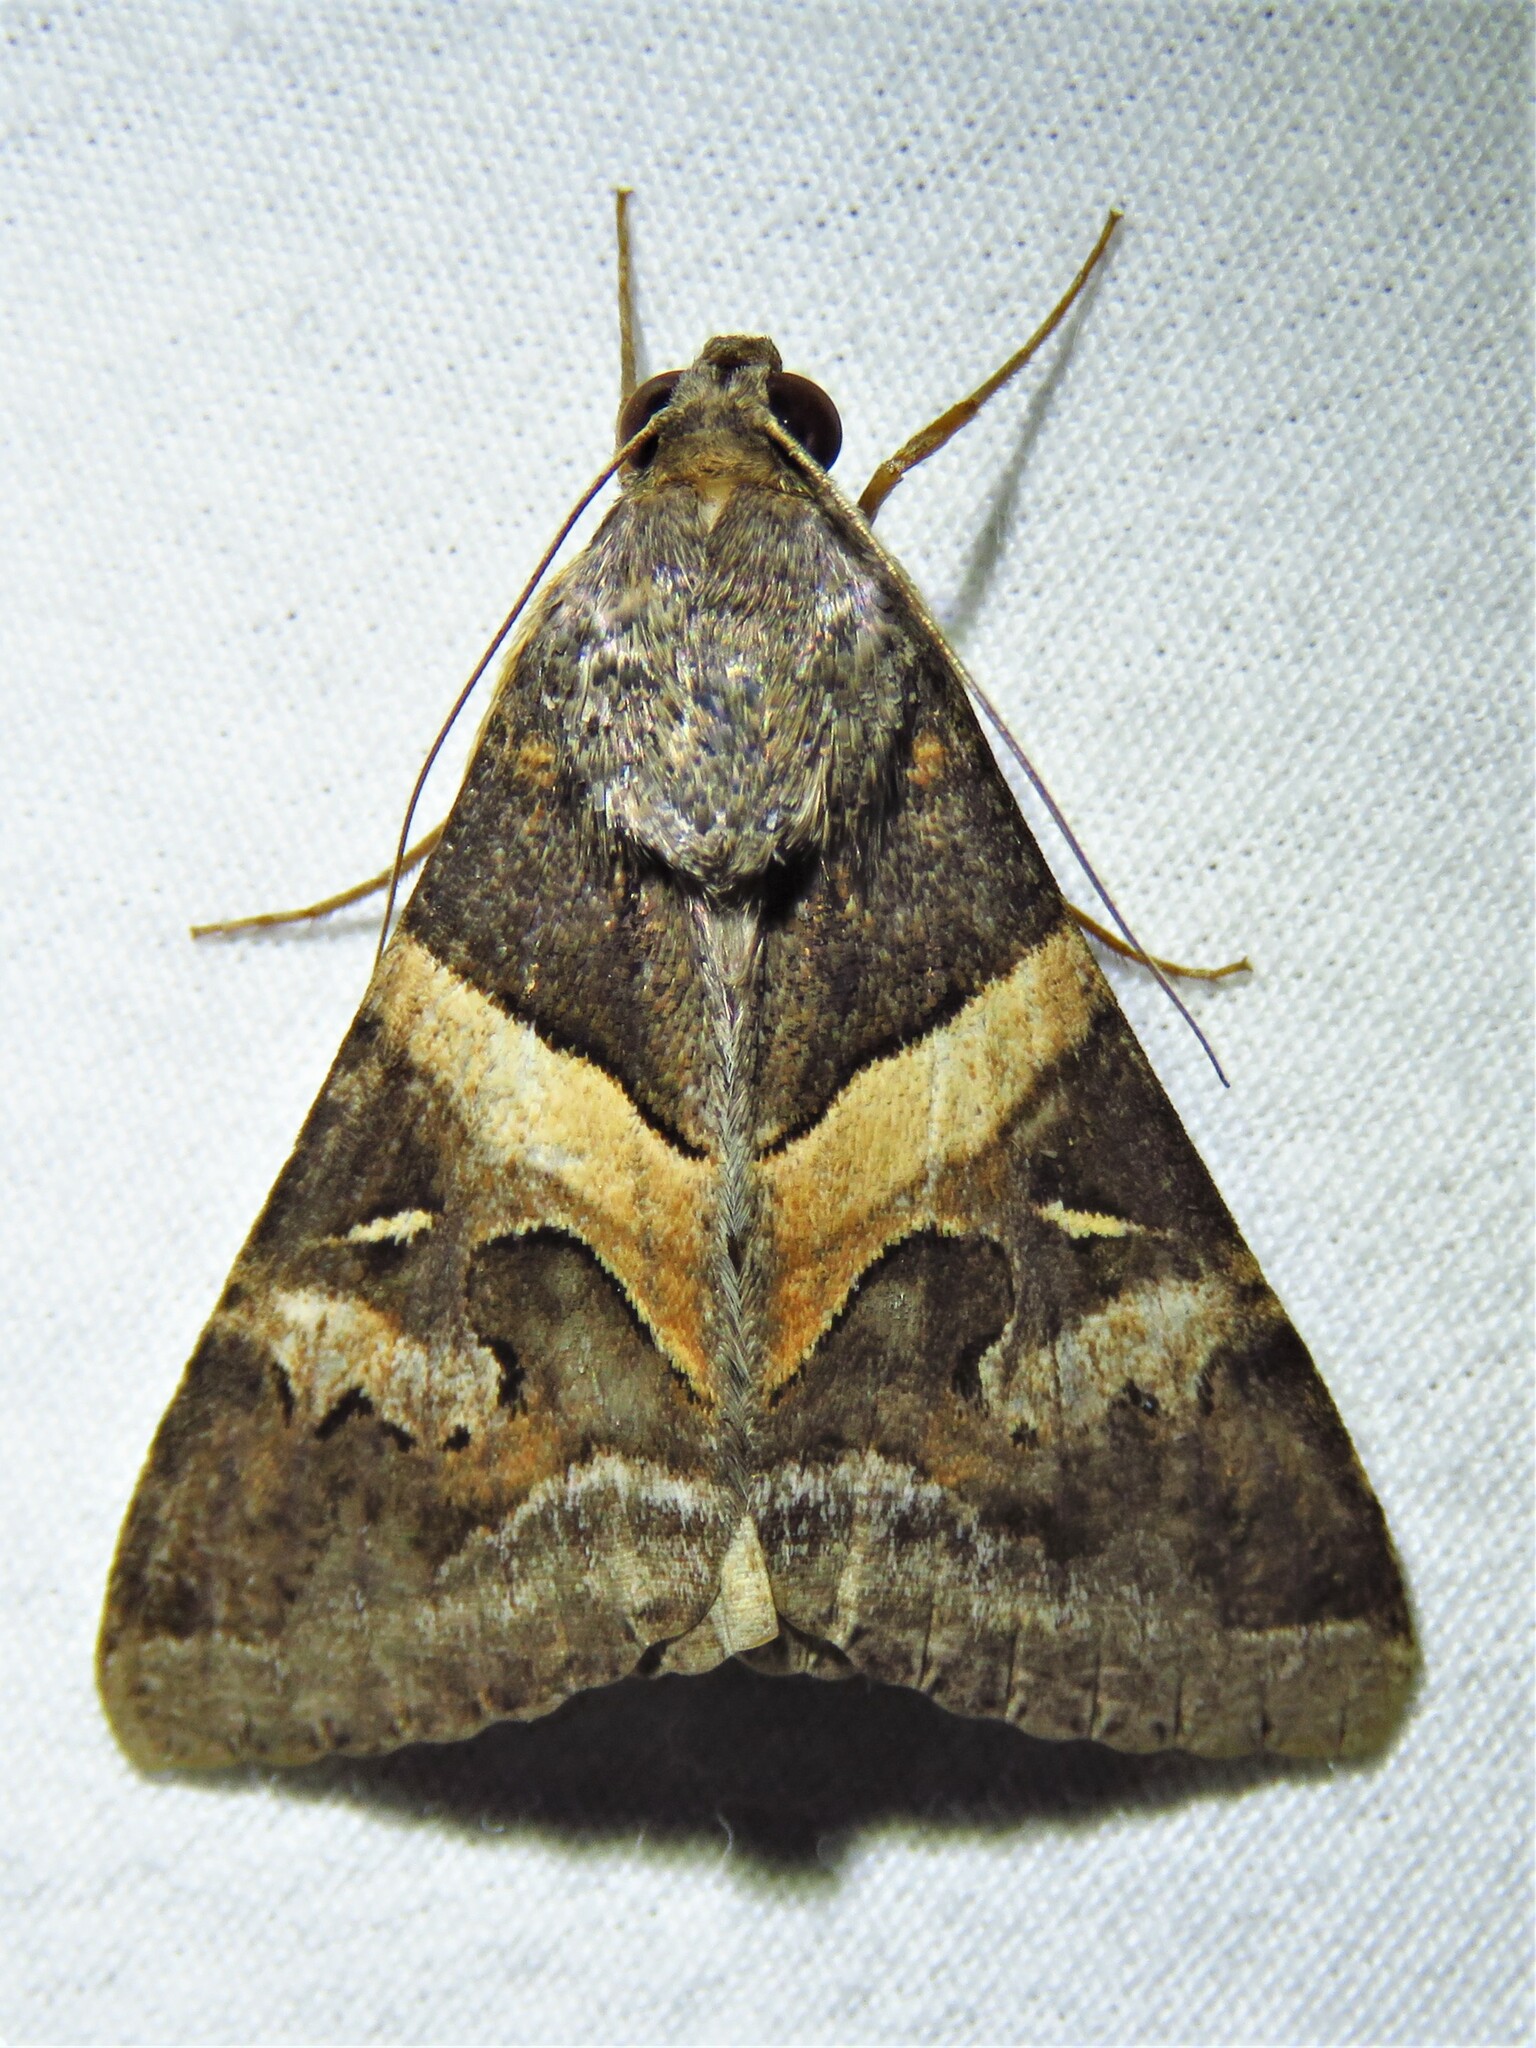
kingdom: Animalia
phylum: Arthropoda
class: Insecta
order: Lepidoptera
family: Erebidae
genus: Melipotis
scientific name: Melipotis indomita
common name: Moth
